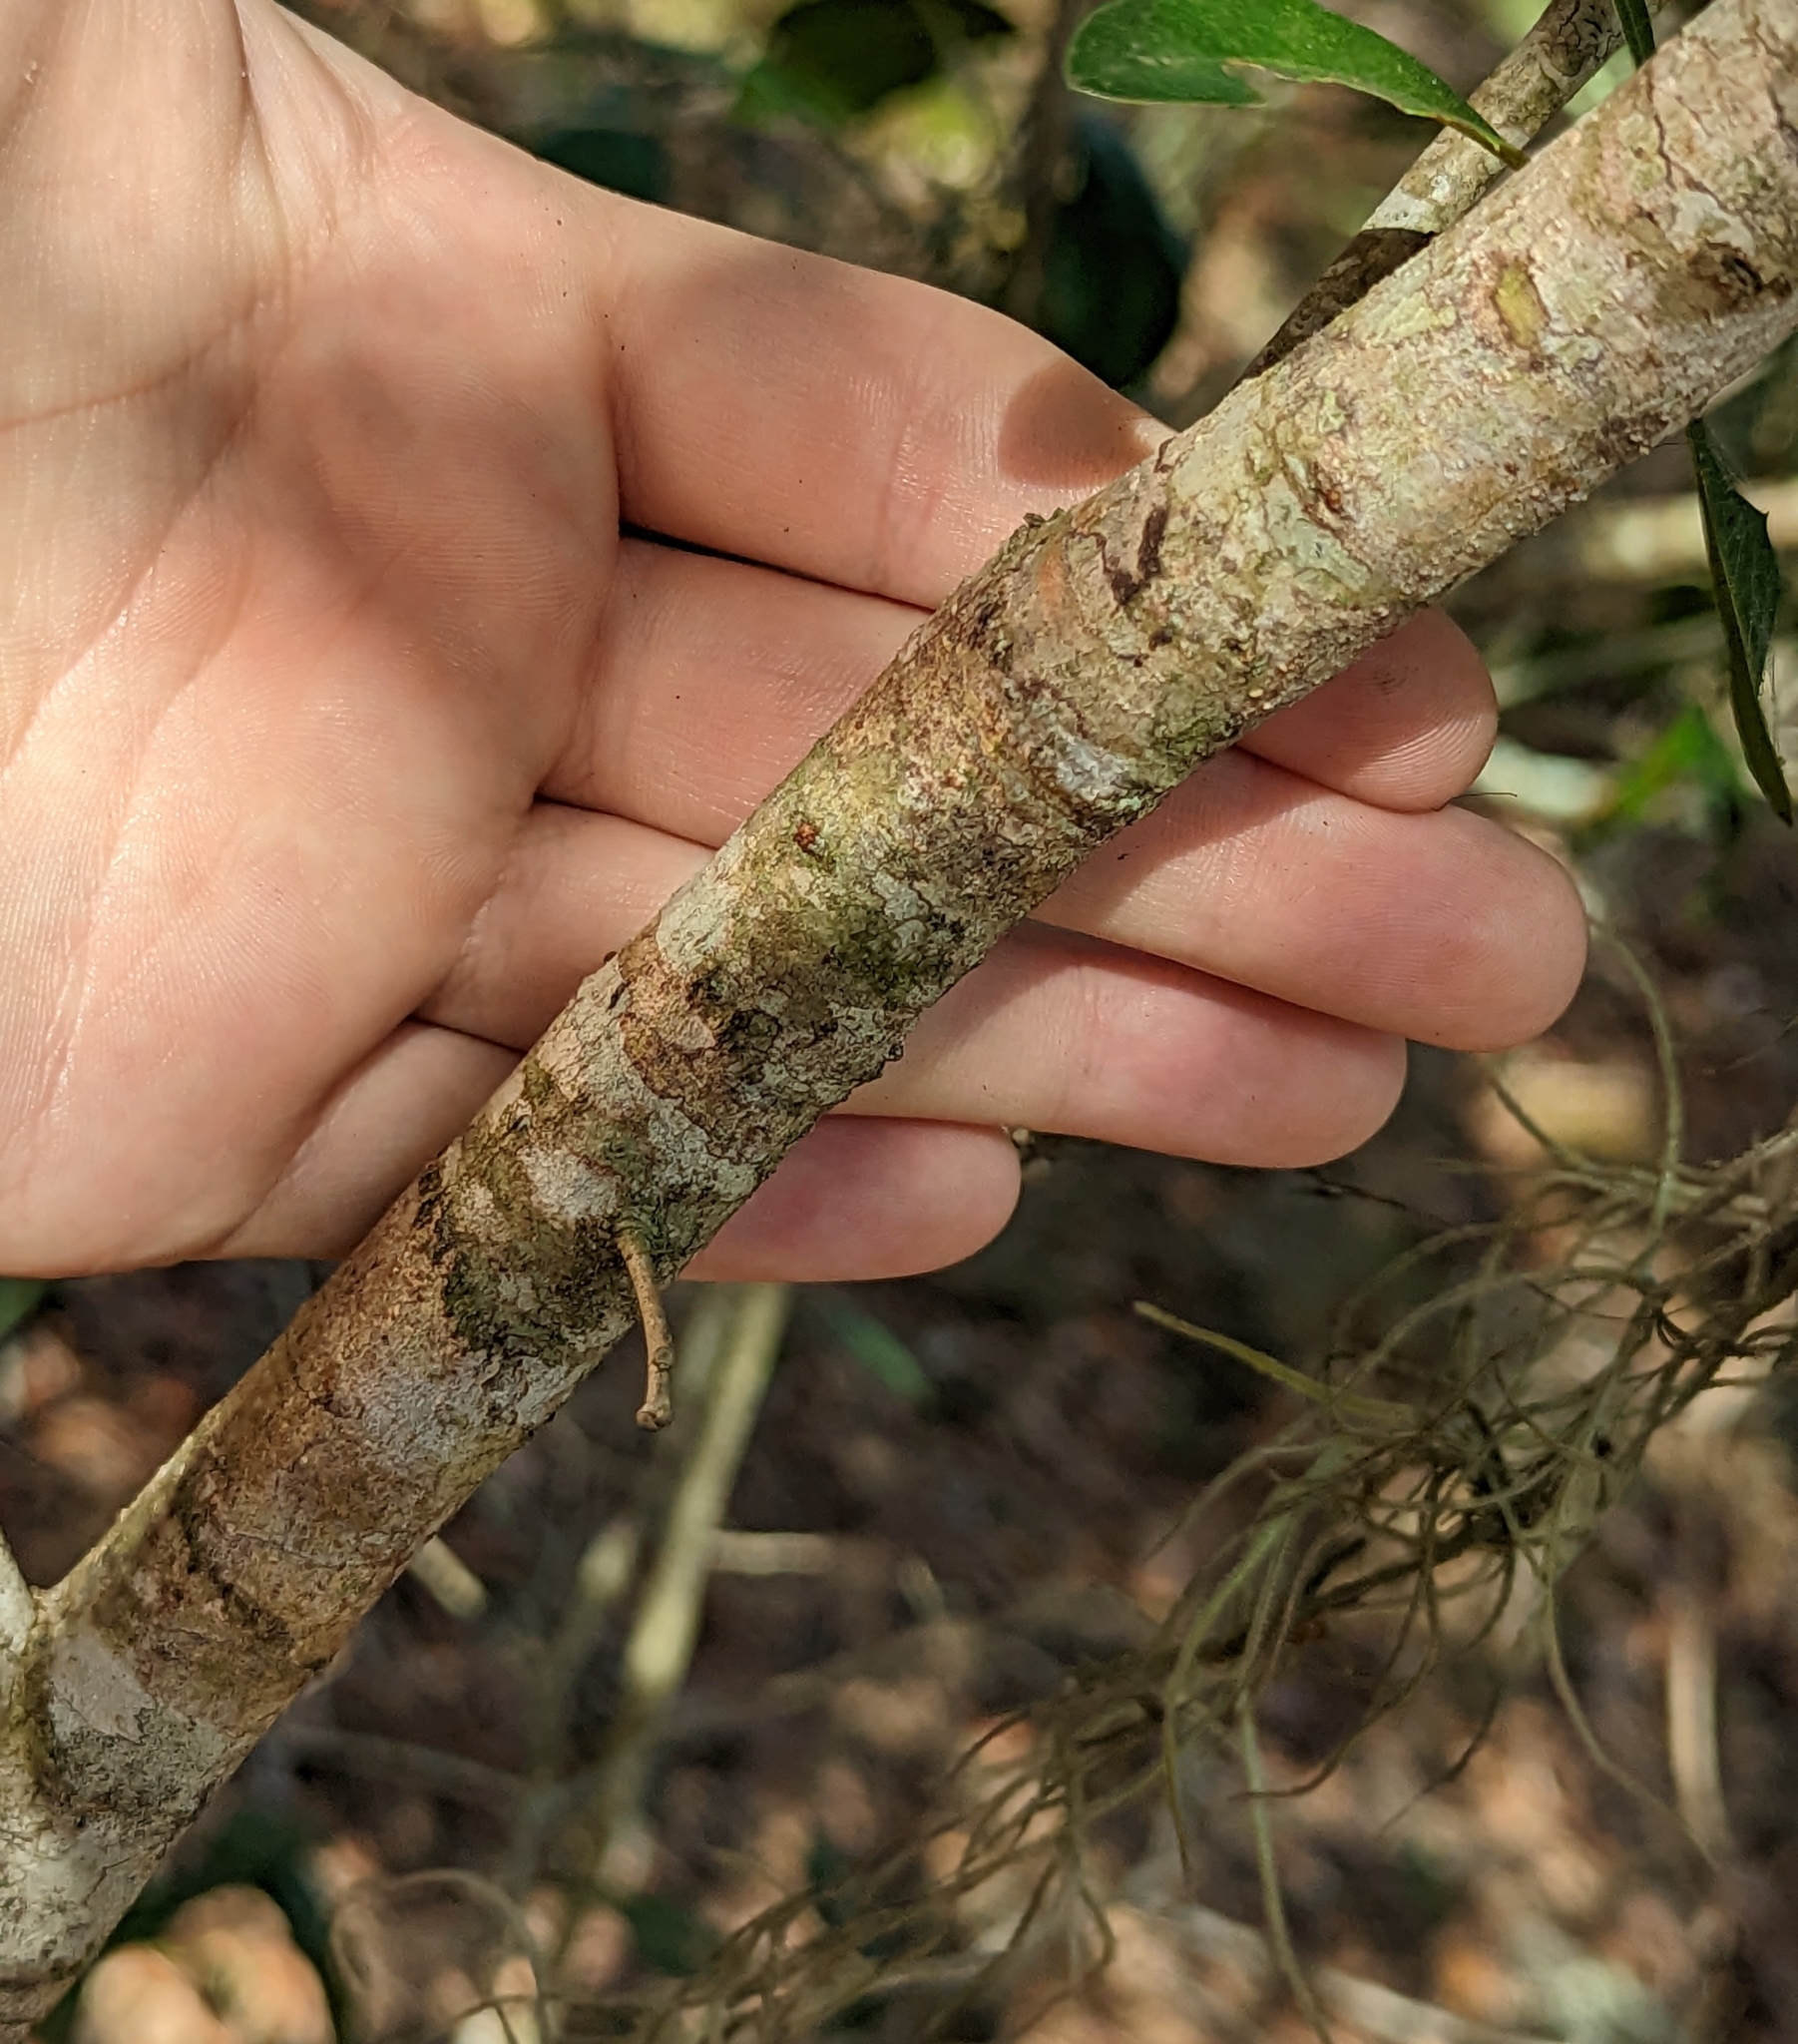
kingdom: Plantae
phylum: Tracheophyta
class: Magnoliopsida
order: Fagales
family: Fagaceae
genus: Quercus
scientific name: Quercus virginiana
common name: Southern live oak
